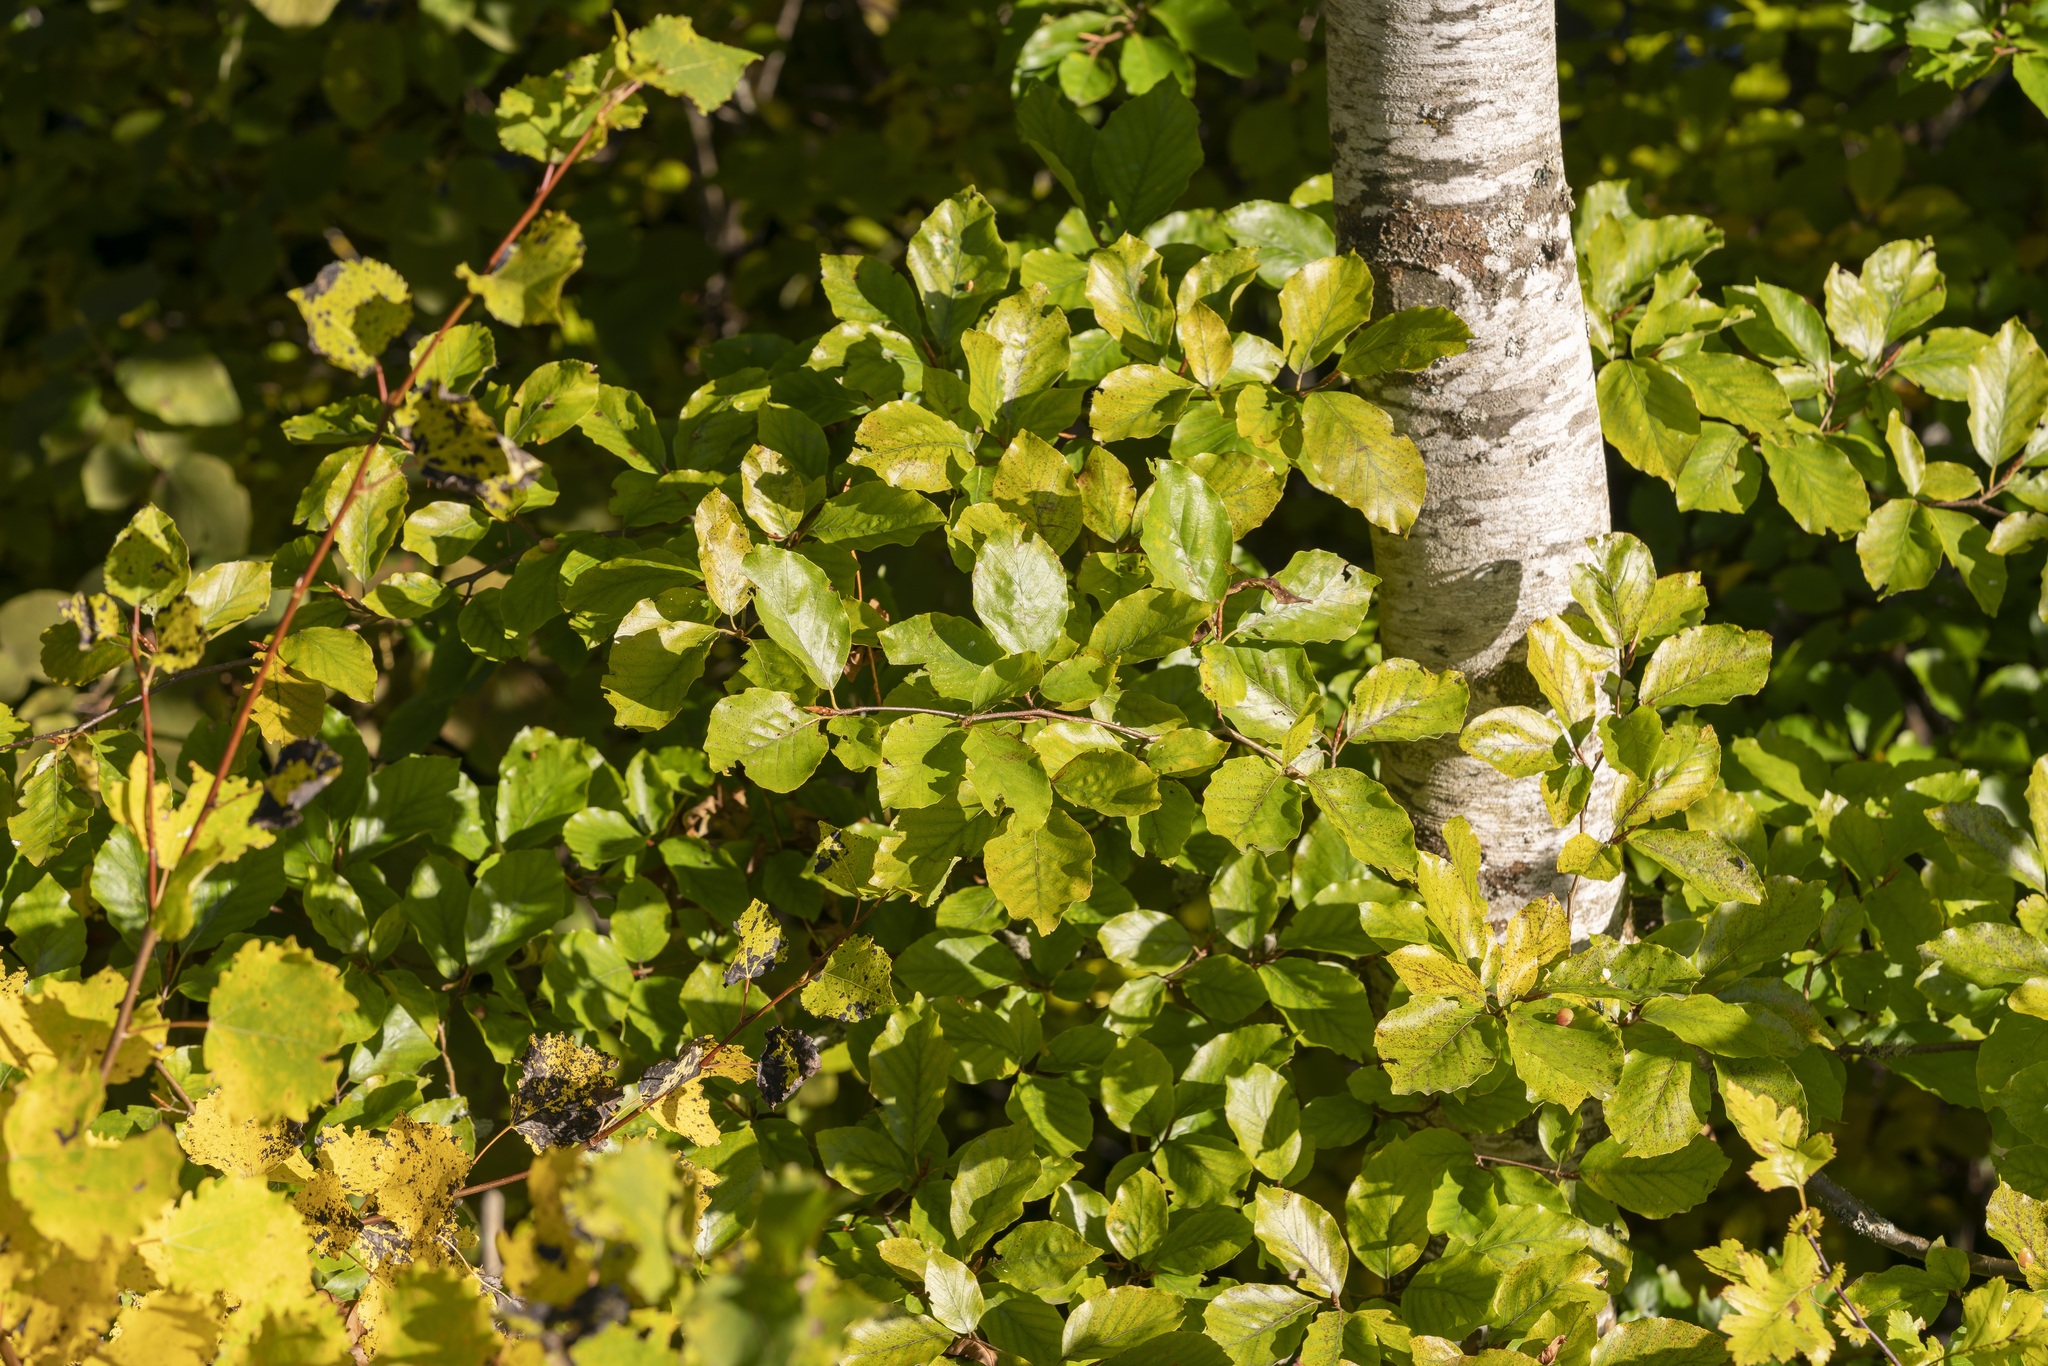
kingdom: Plantae
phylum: Tracheophyta
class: Magnoliopsida
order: Fagales
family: Fagaceae
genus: Fagus
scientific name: Fagus sylvatica
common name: Beech
